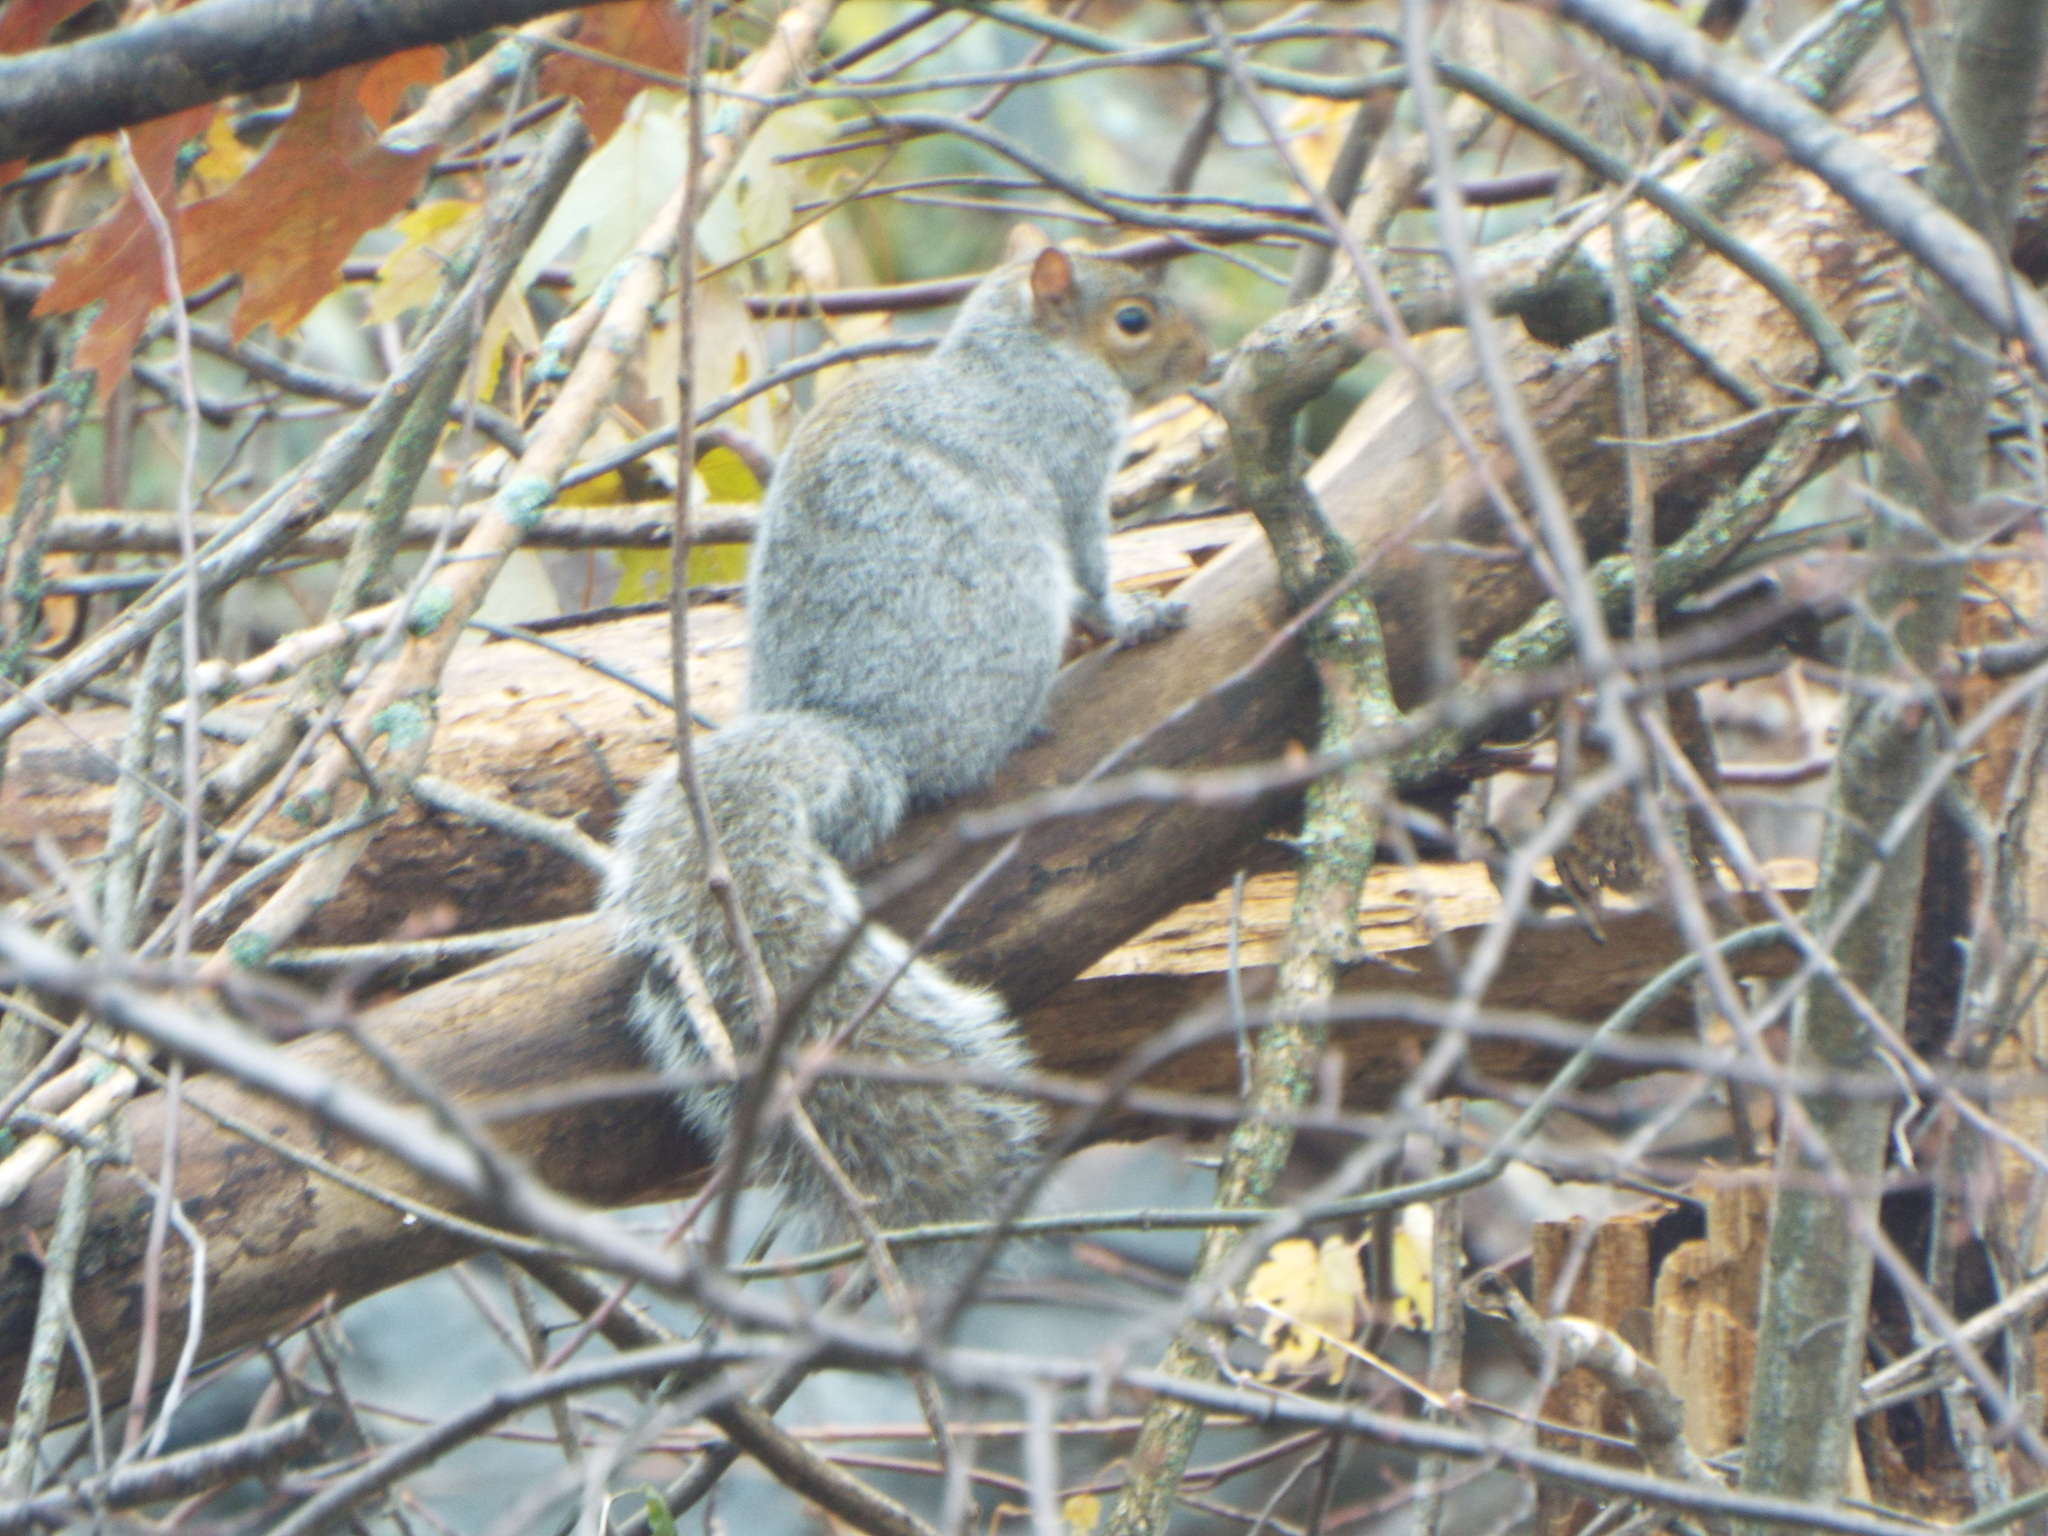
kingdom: Animalia
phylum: Chordata
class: Mammalia
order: Rodentia
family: Sciuridae
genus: Sciurus
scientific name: Sciurus carolinensis
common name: Eastern gray squirrel
